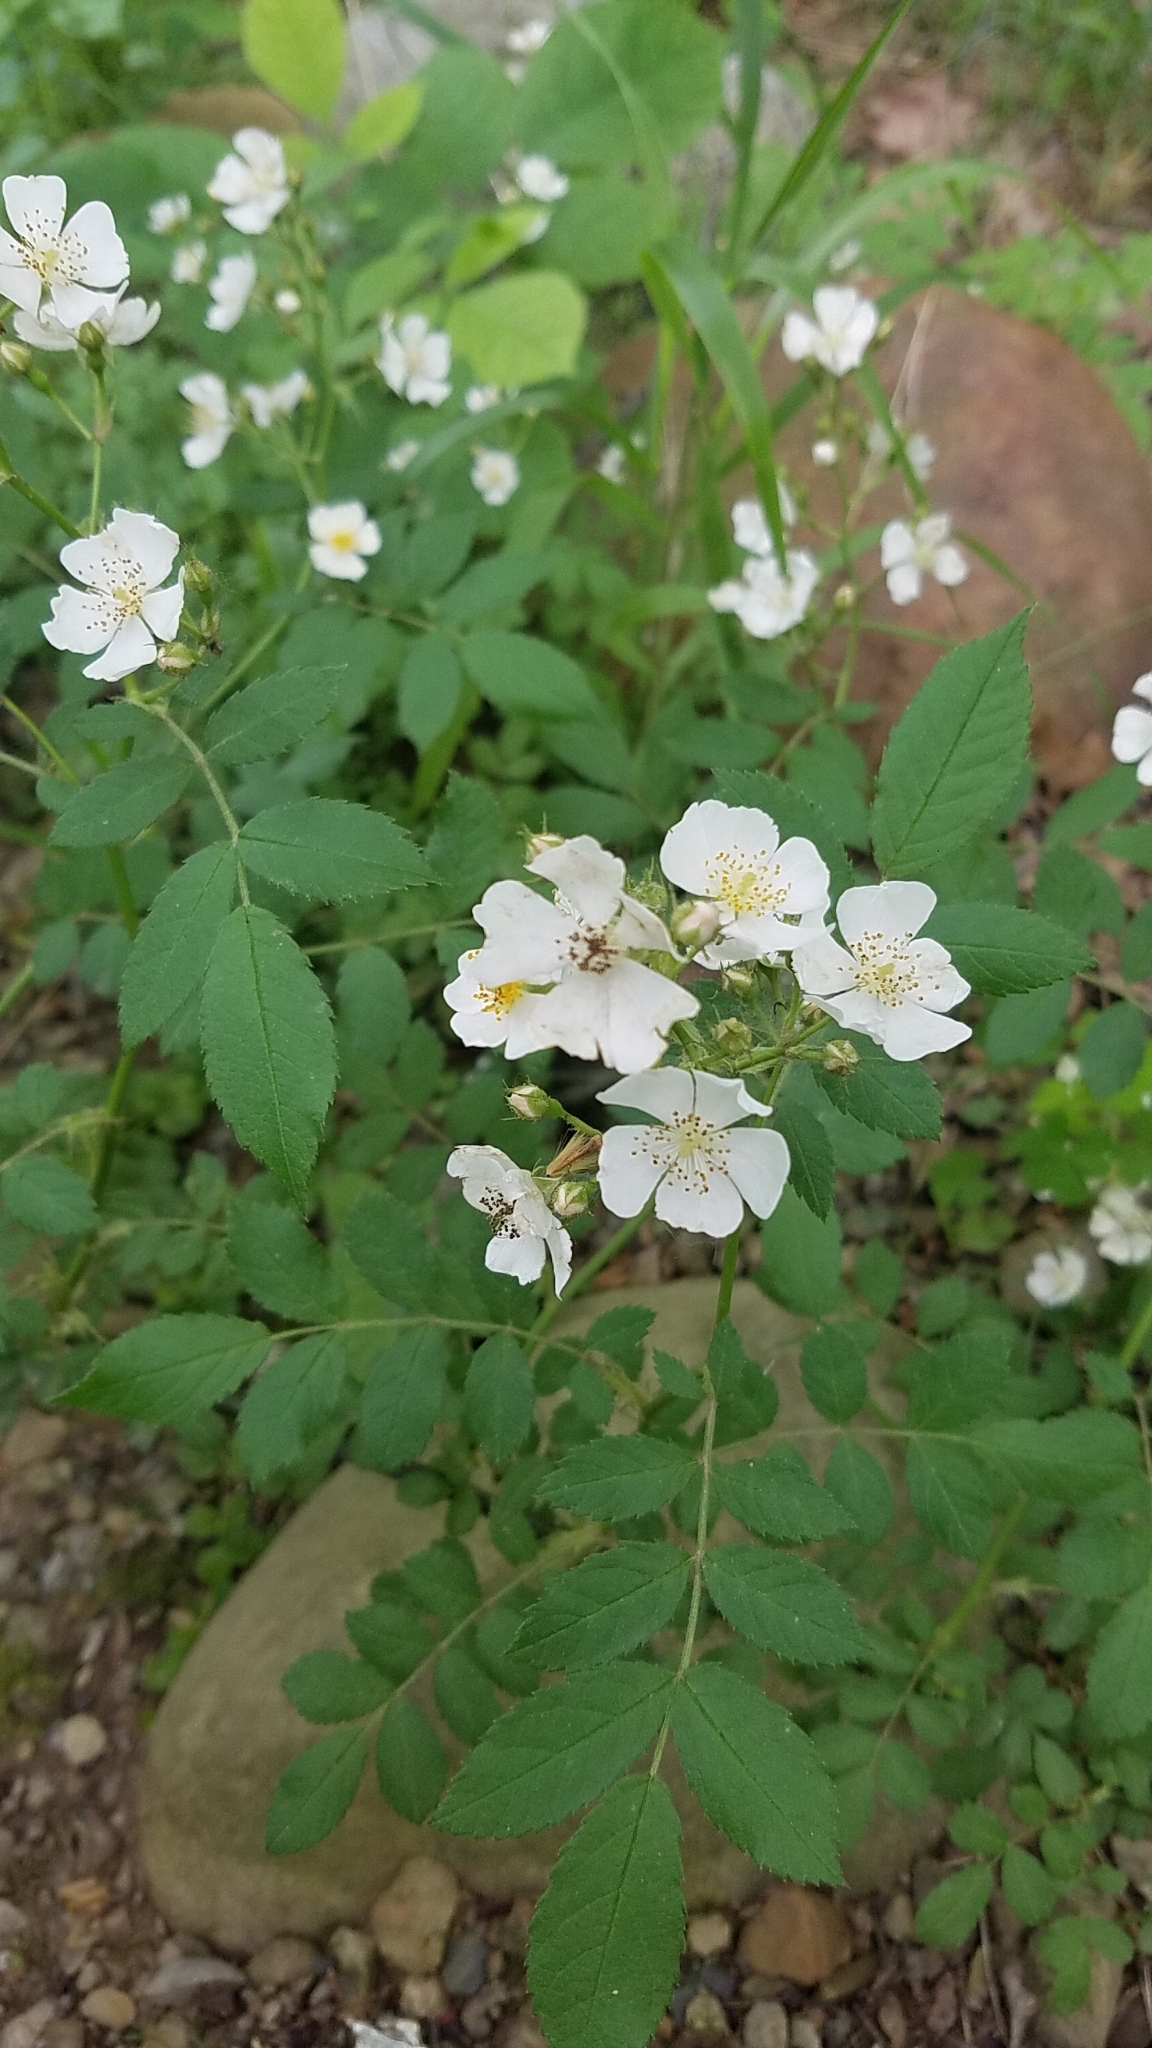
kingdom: Plantae
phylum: Tracheophyta
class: Magnoliopsida
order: Rosales
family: Rosaceae
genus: Rosa
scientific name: Rosa multiflora
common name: Multiflora rose
